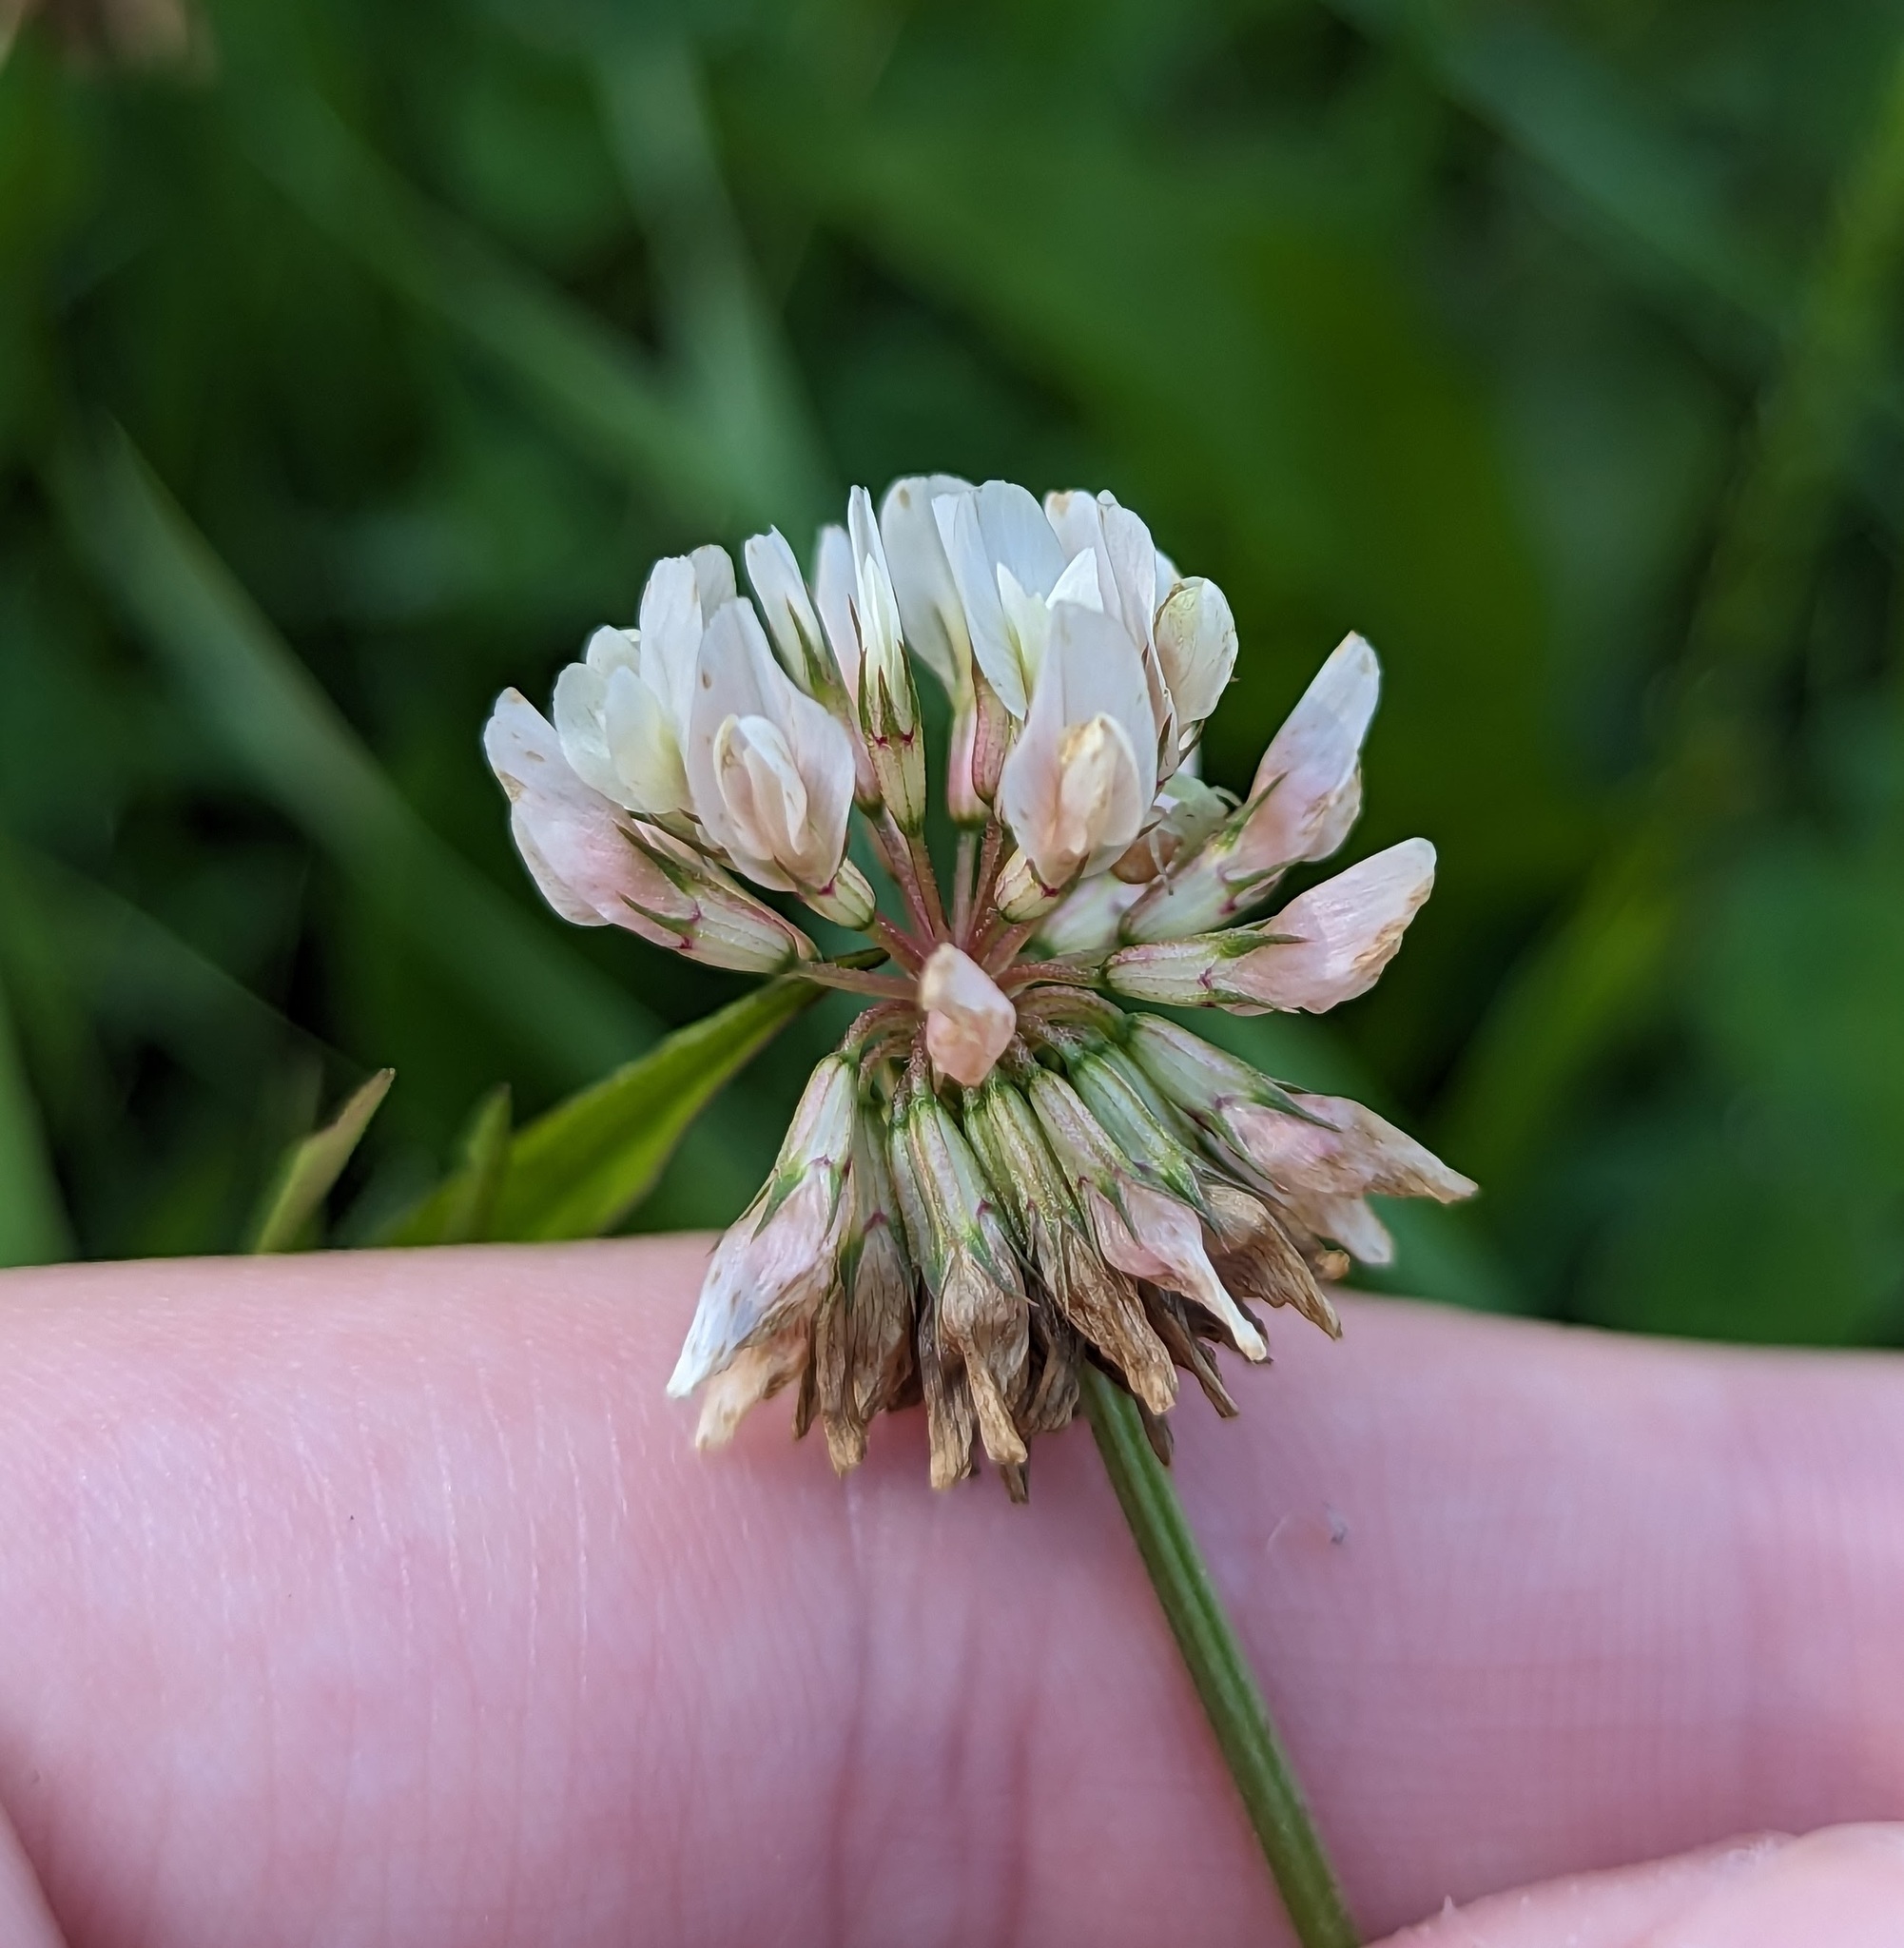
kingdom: Plantae
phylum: Tracheophyta
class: Magnoliopsida
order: Fabales
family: Fabaceae
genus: Trifolium
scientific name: Trifolium repens
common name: White clover
